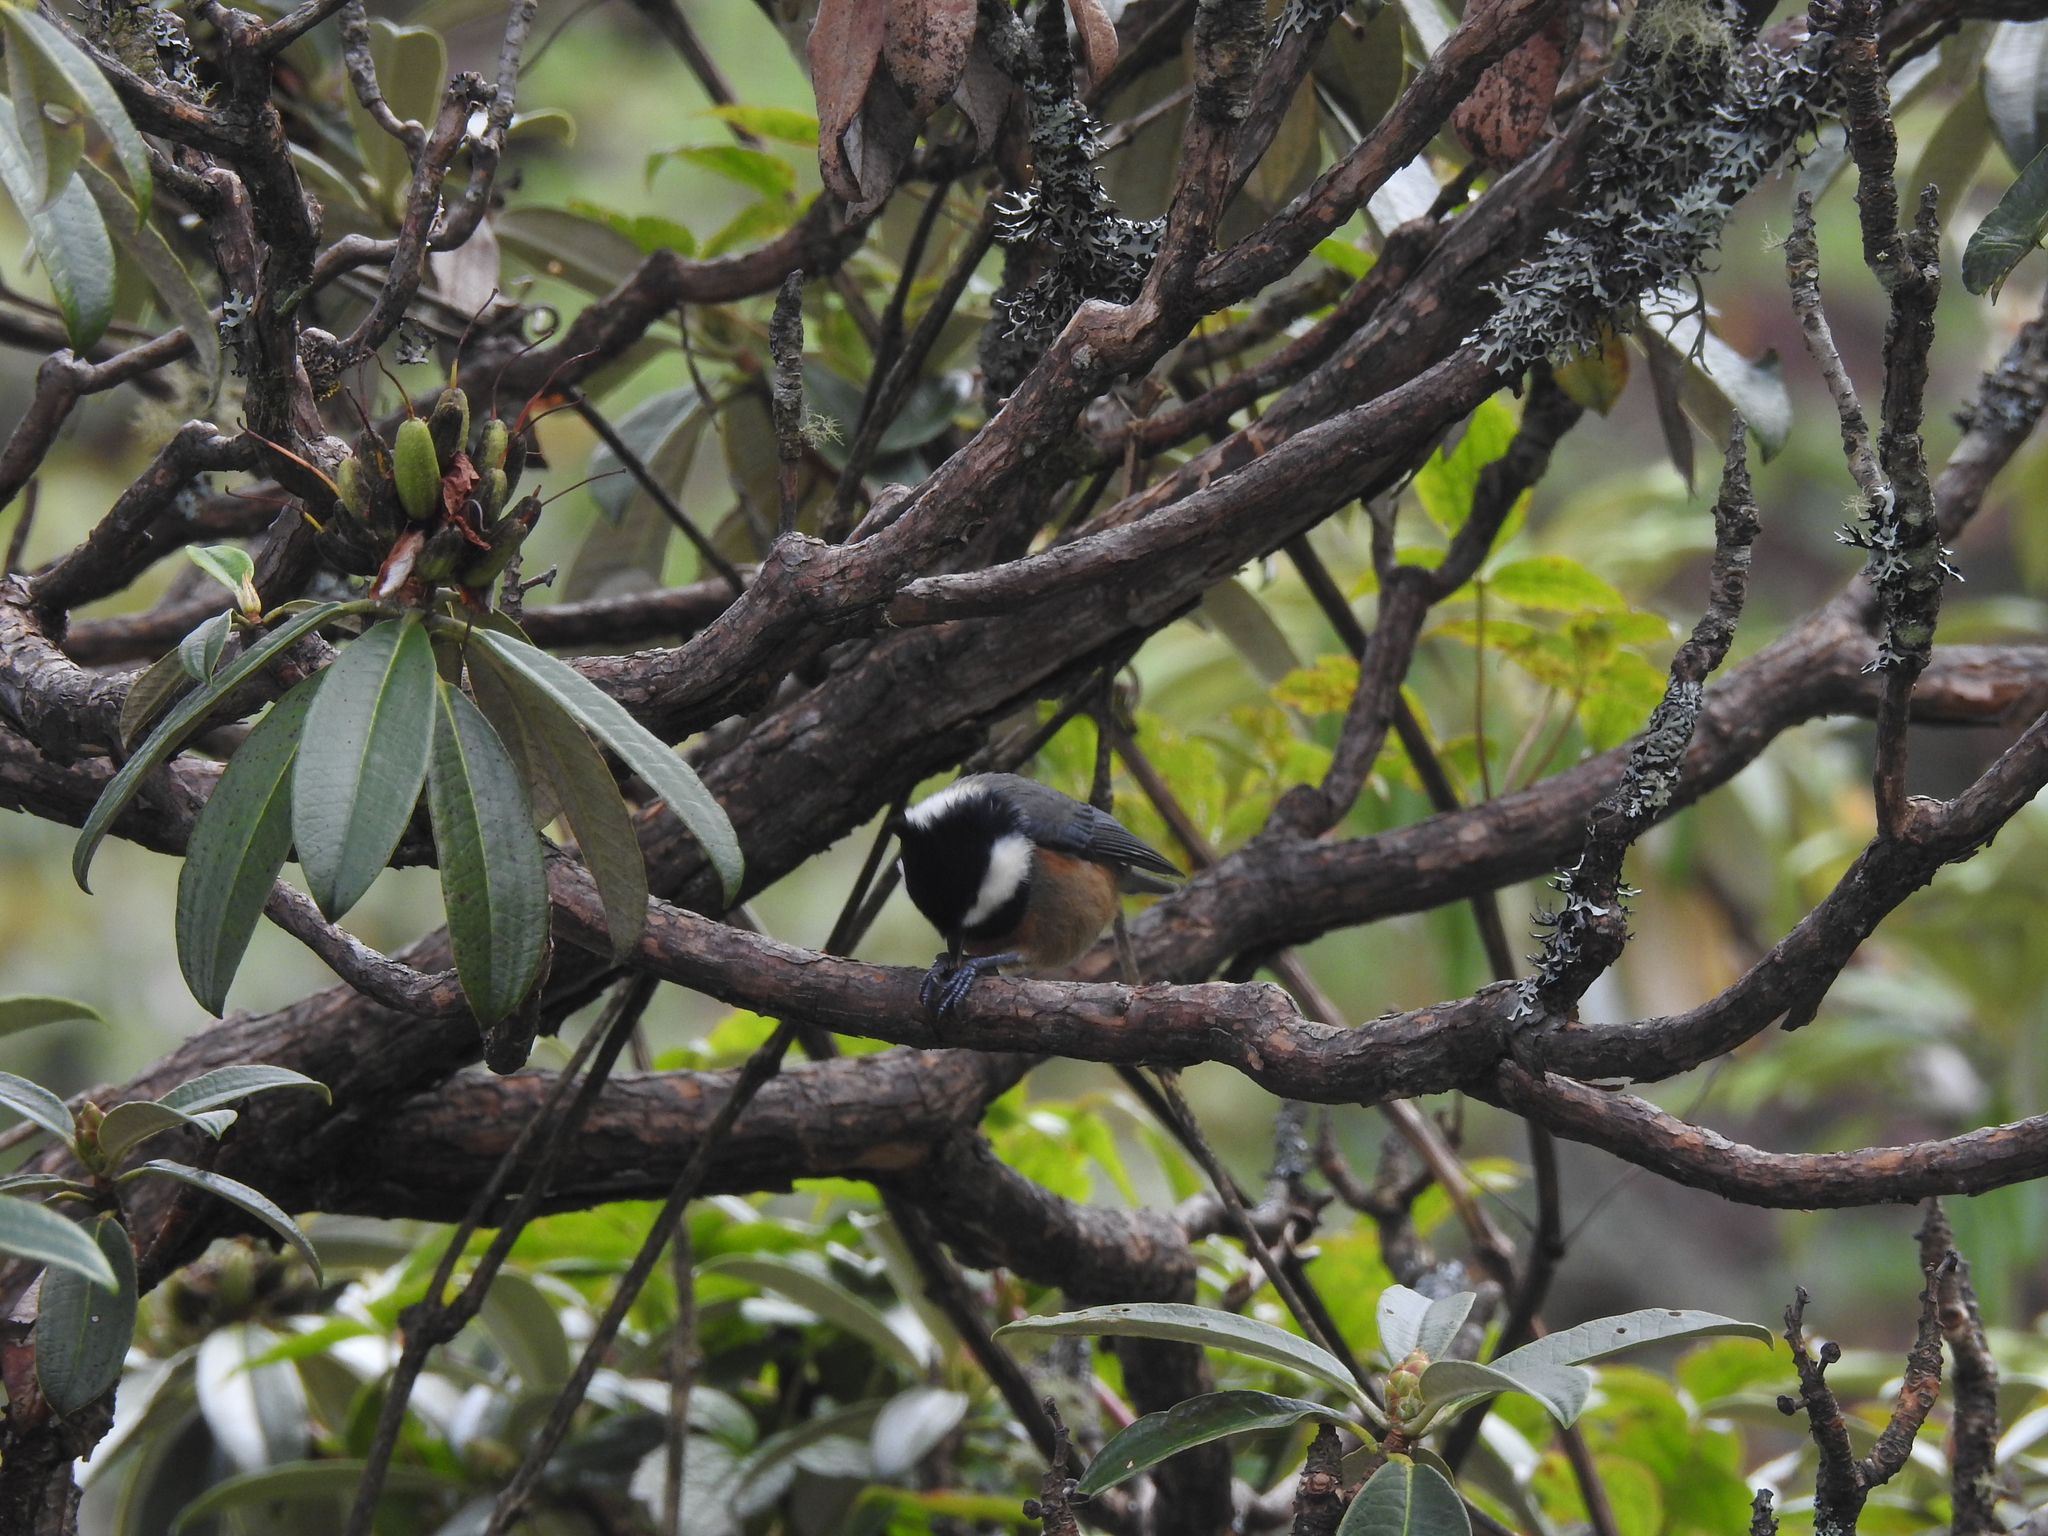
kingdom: Animalia
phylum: Chordata
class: Aves
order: Passeriformes
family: Paridae
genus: Periparus
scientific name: Periparus ater
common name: Coal tit
